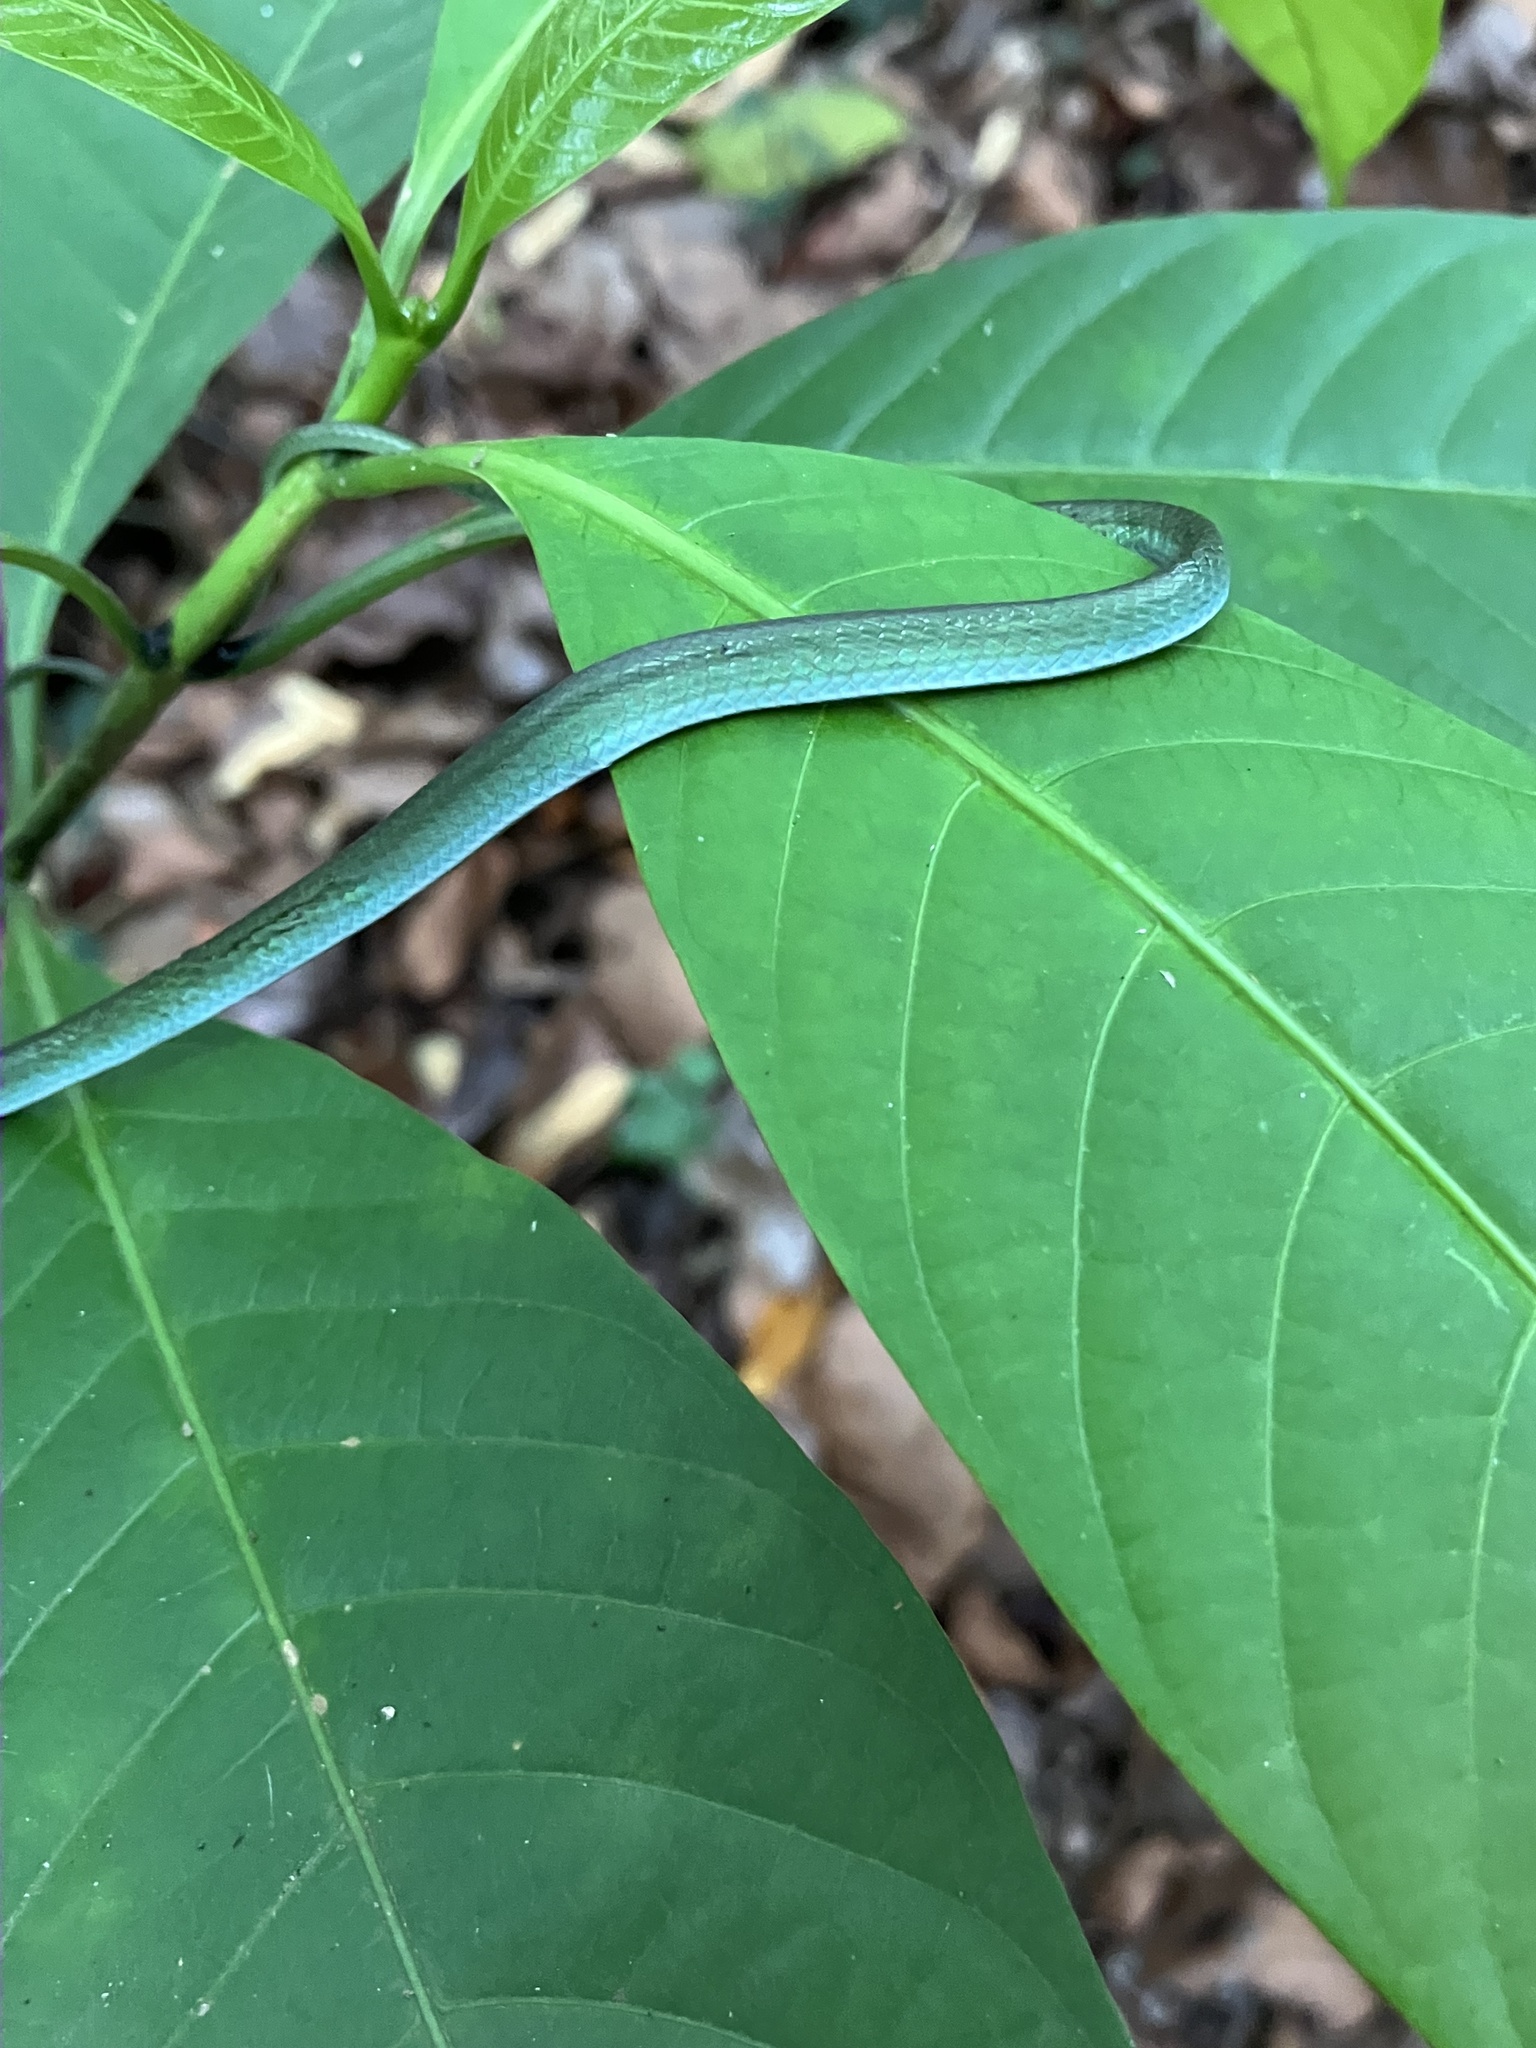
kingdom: Animalia
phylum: Chordata
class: Squamata
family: Colubridae
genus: Ahaetulla
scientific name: Ahaetulla farnsworthi
